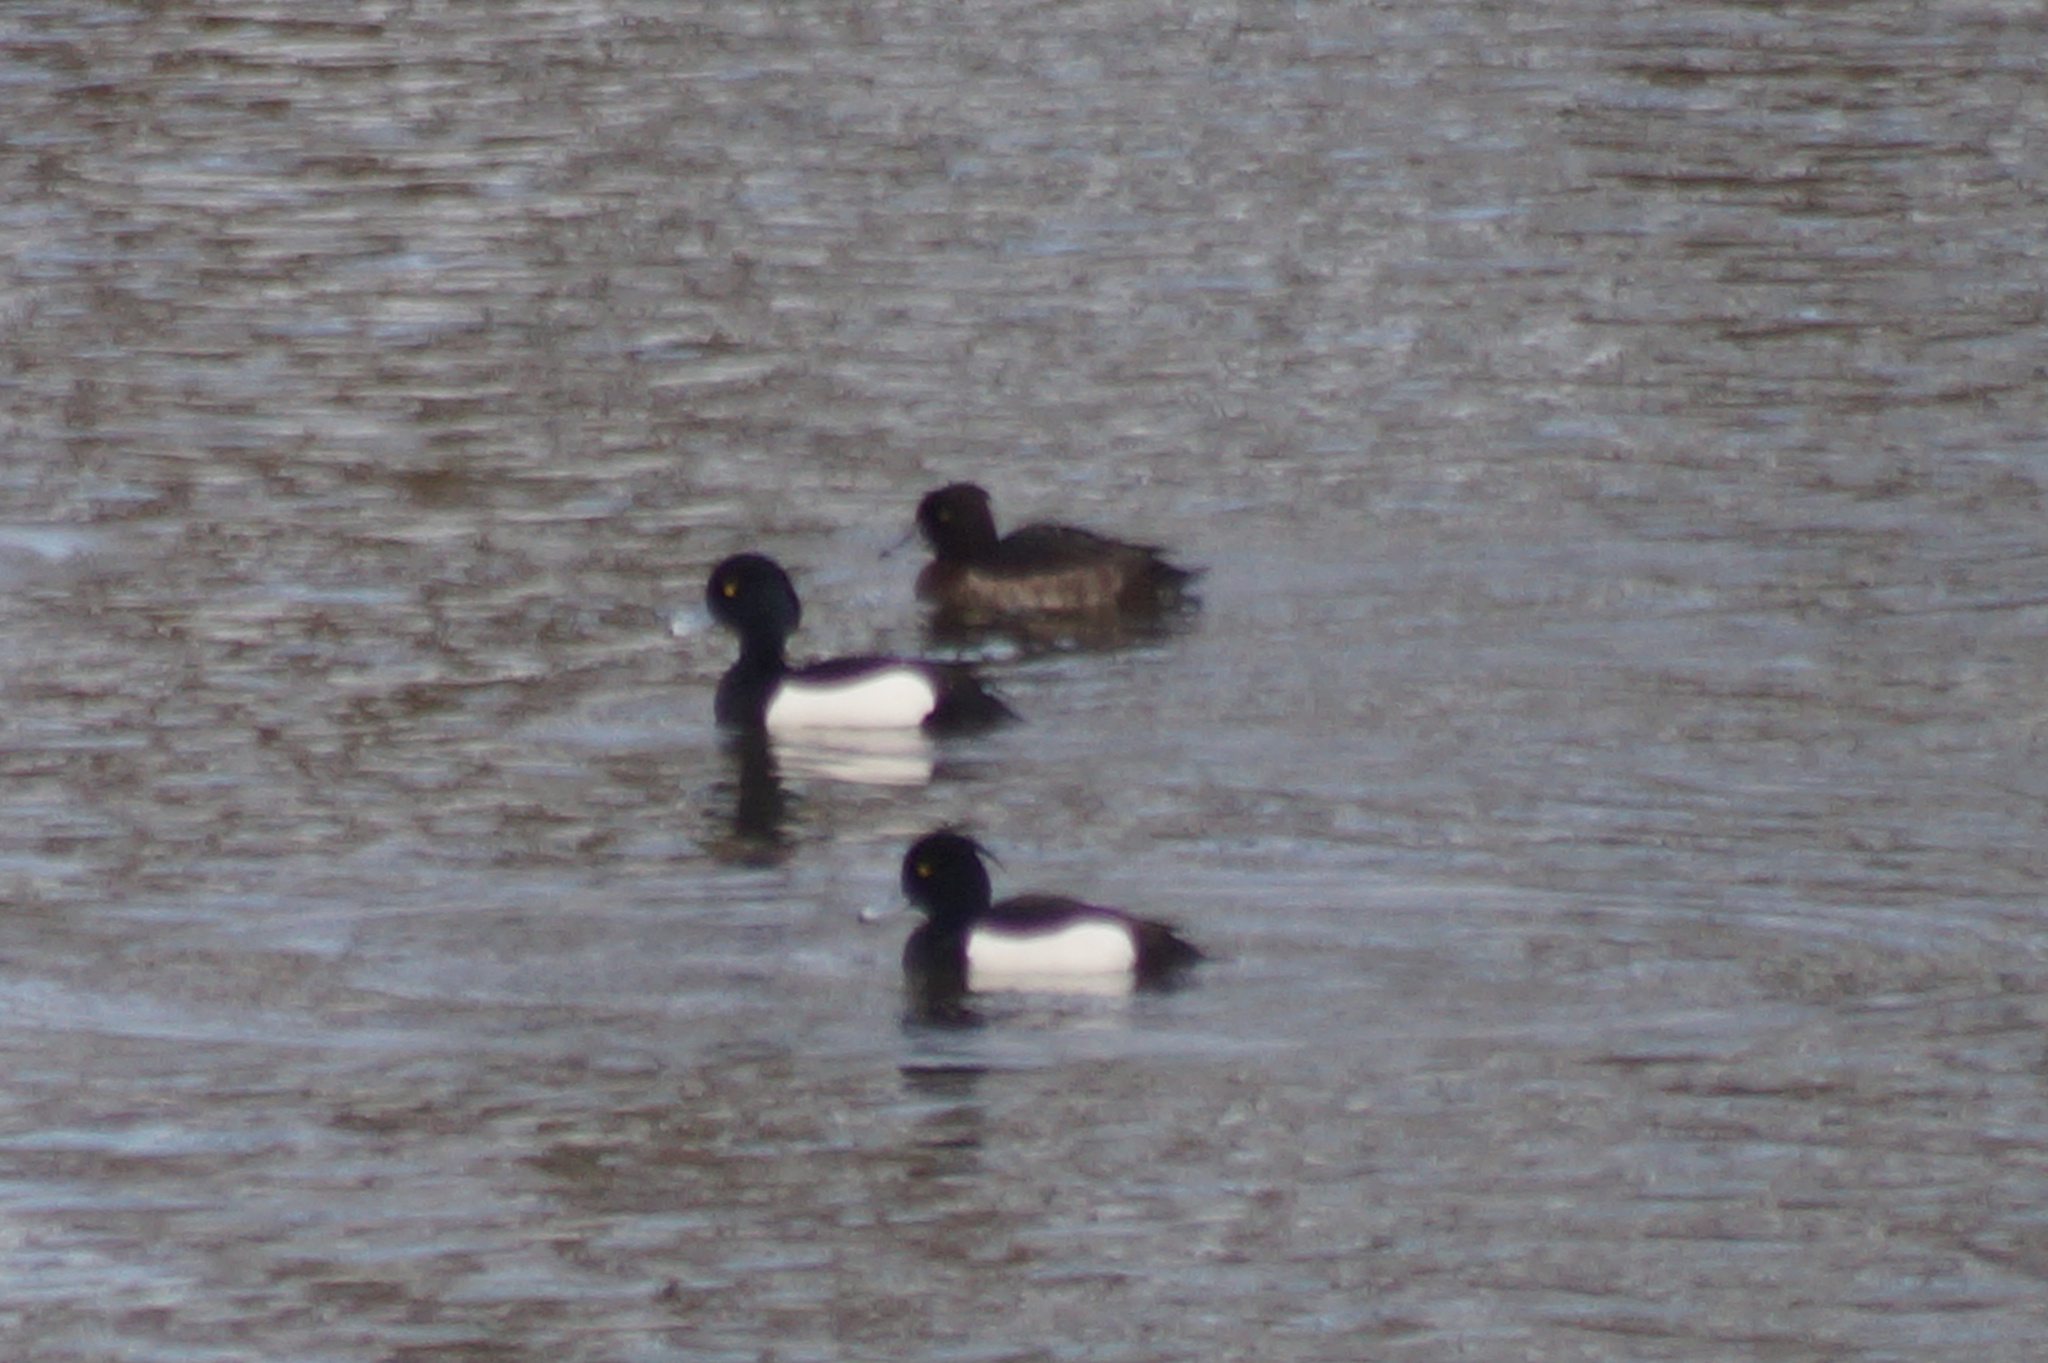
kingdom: Animalia
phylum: Chordata
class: Aves
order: Anseriformes
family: Anatidae
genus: Aythya
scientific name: Aythya fuligula
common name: Tufted duck
